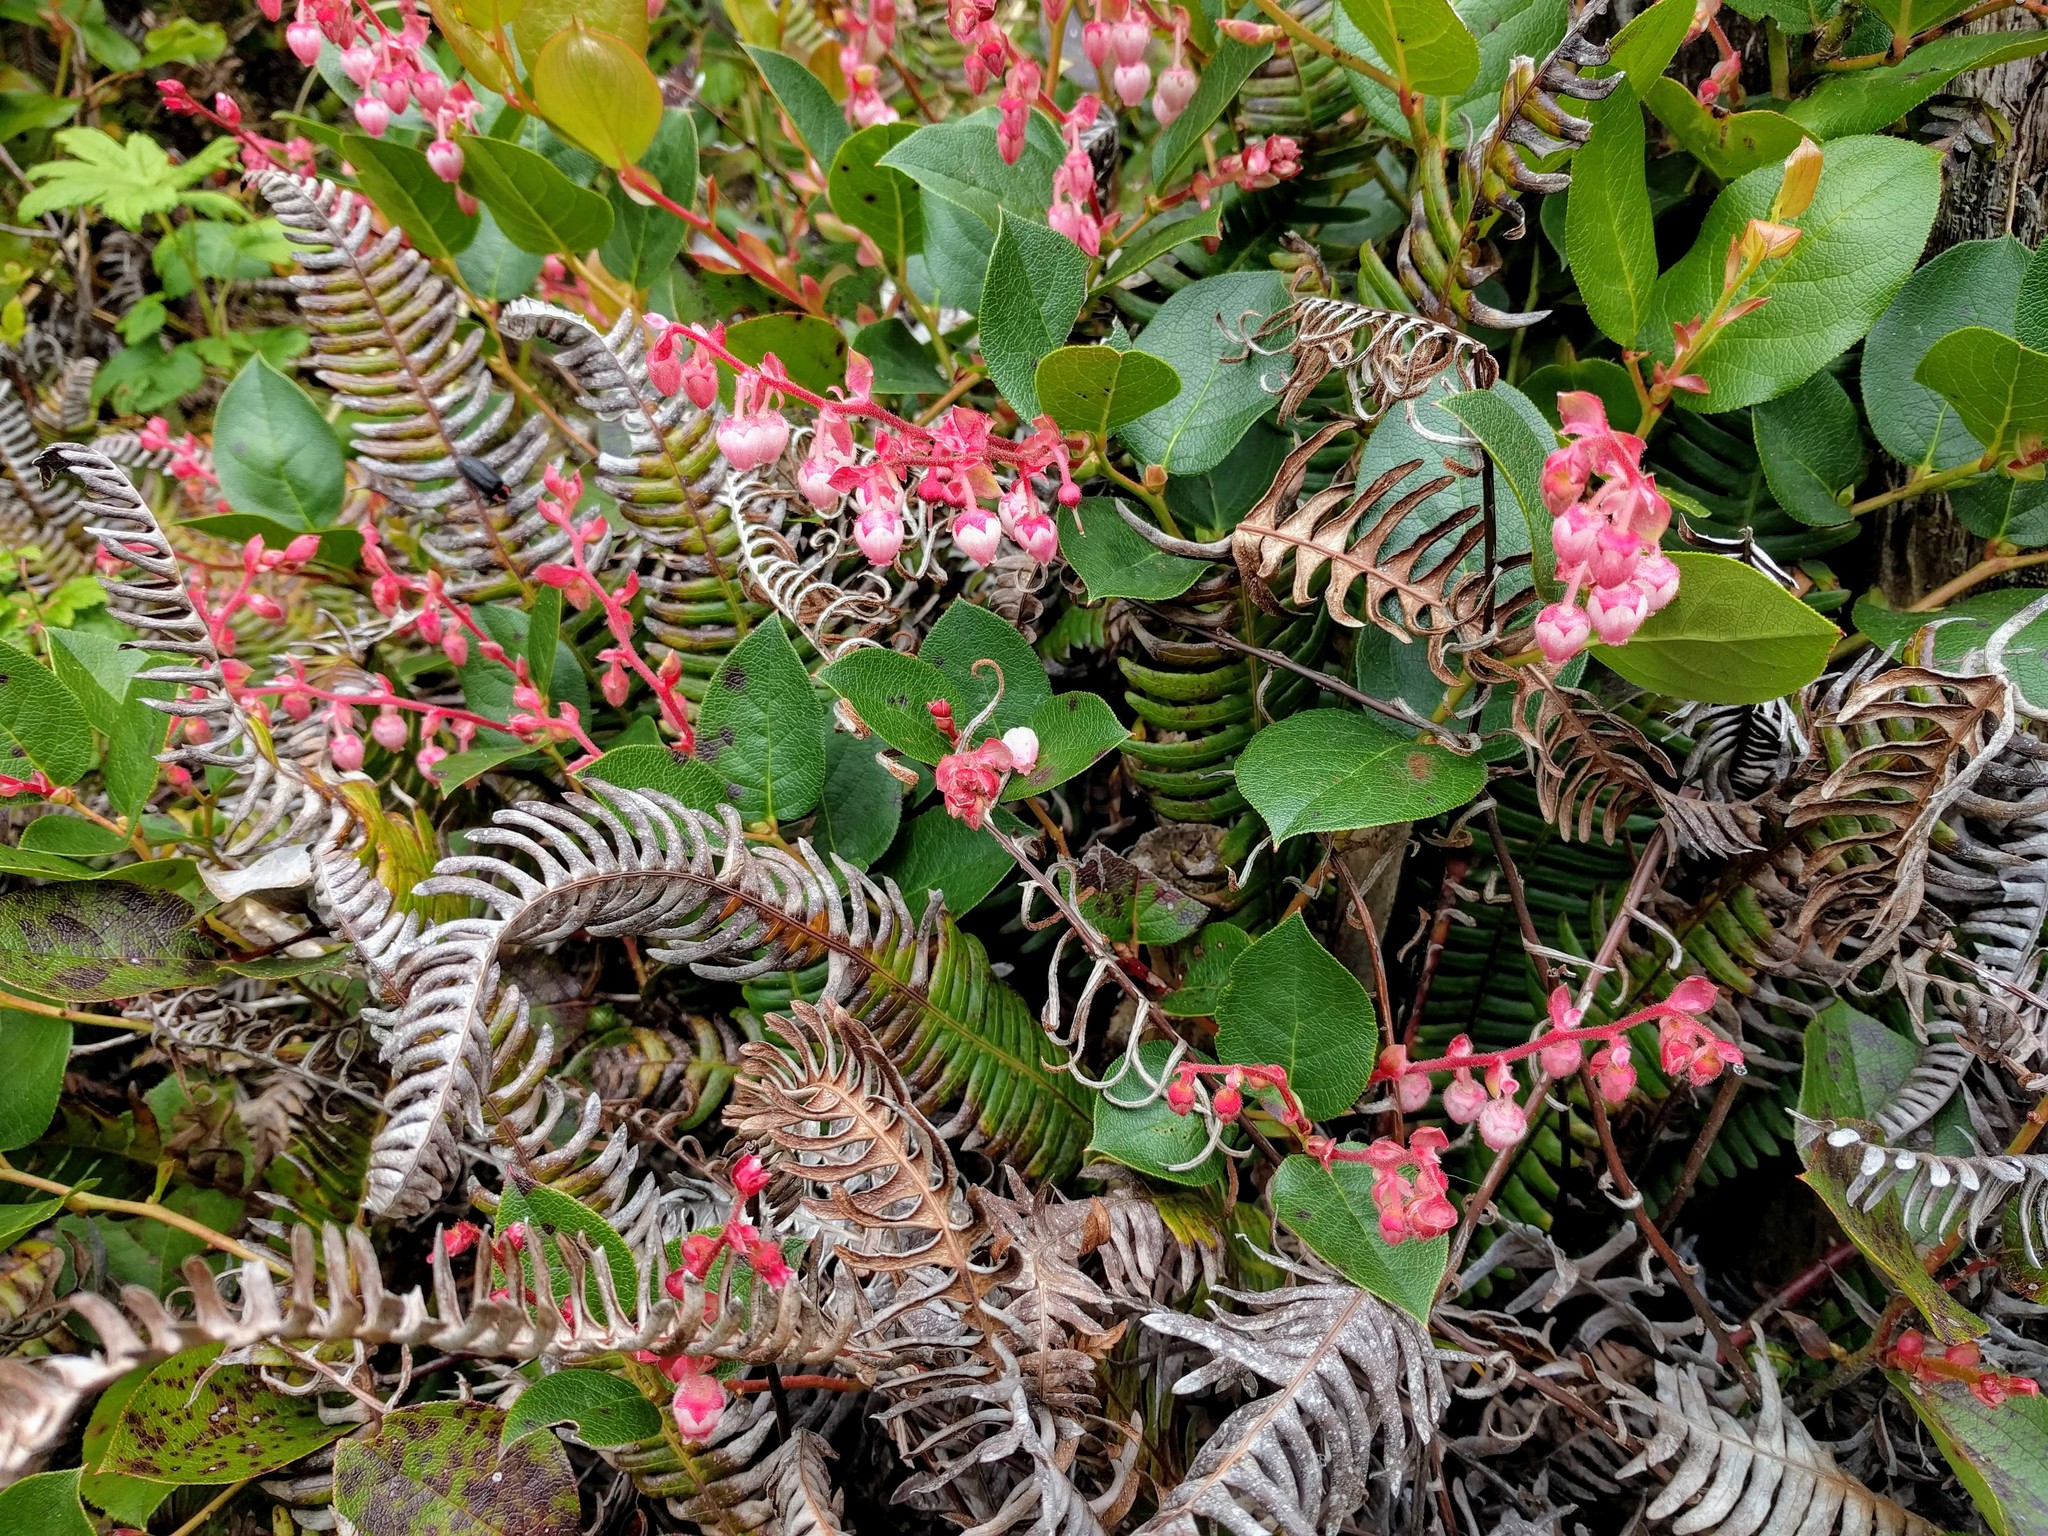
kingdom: Plantae
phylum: Tracheophyta
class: Magnoliopsida
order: Ericales
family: Ericaceae
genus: Gaultheria
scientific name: Gaultheria shallon
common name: Shallon
